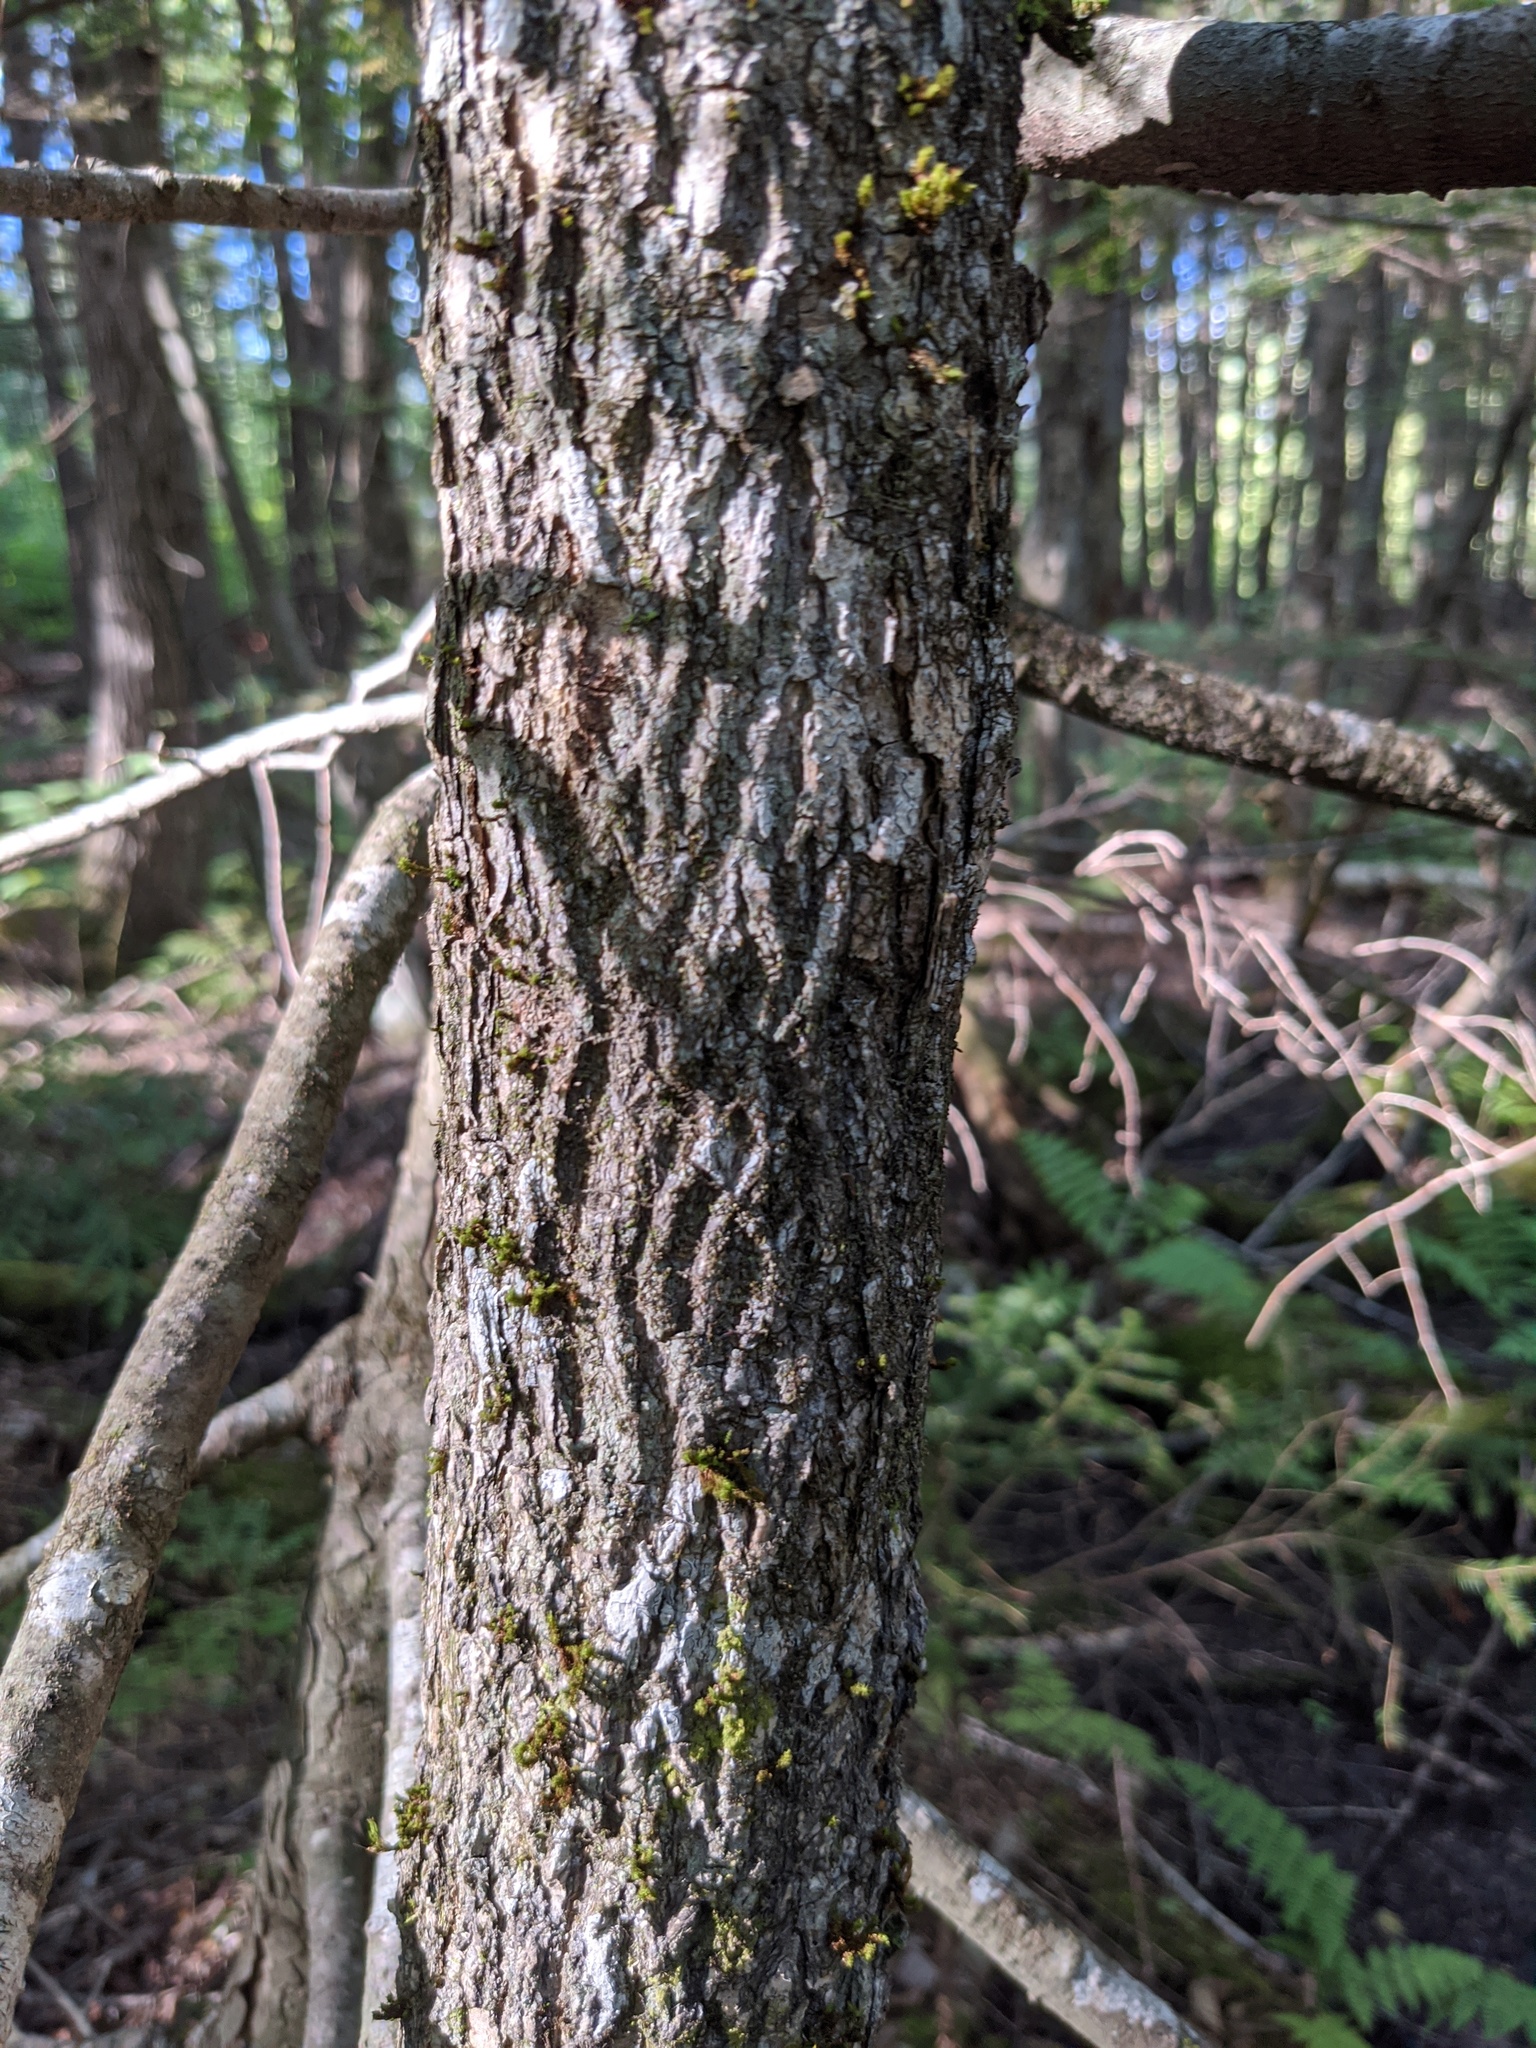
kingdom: Plantae
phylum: Tracheophyta
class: Magnoliopsida
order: Lamiales
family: Oleaceae
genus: Fraxinus
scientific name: Fraxinus nigra
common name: Black ash
